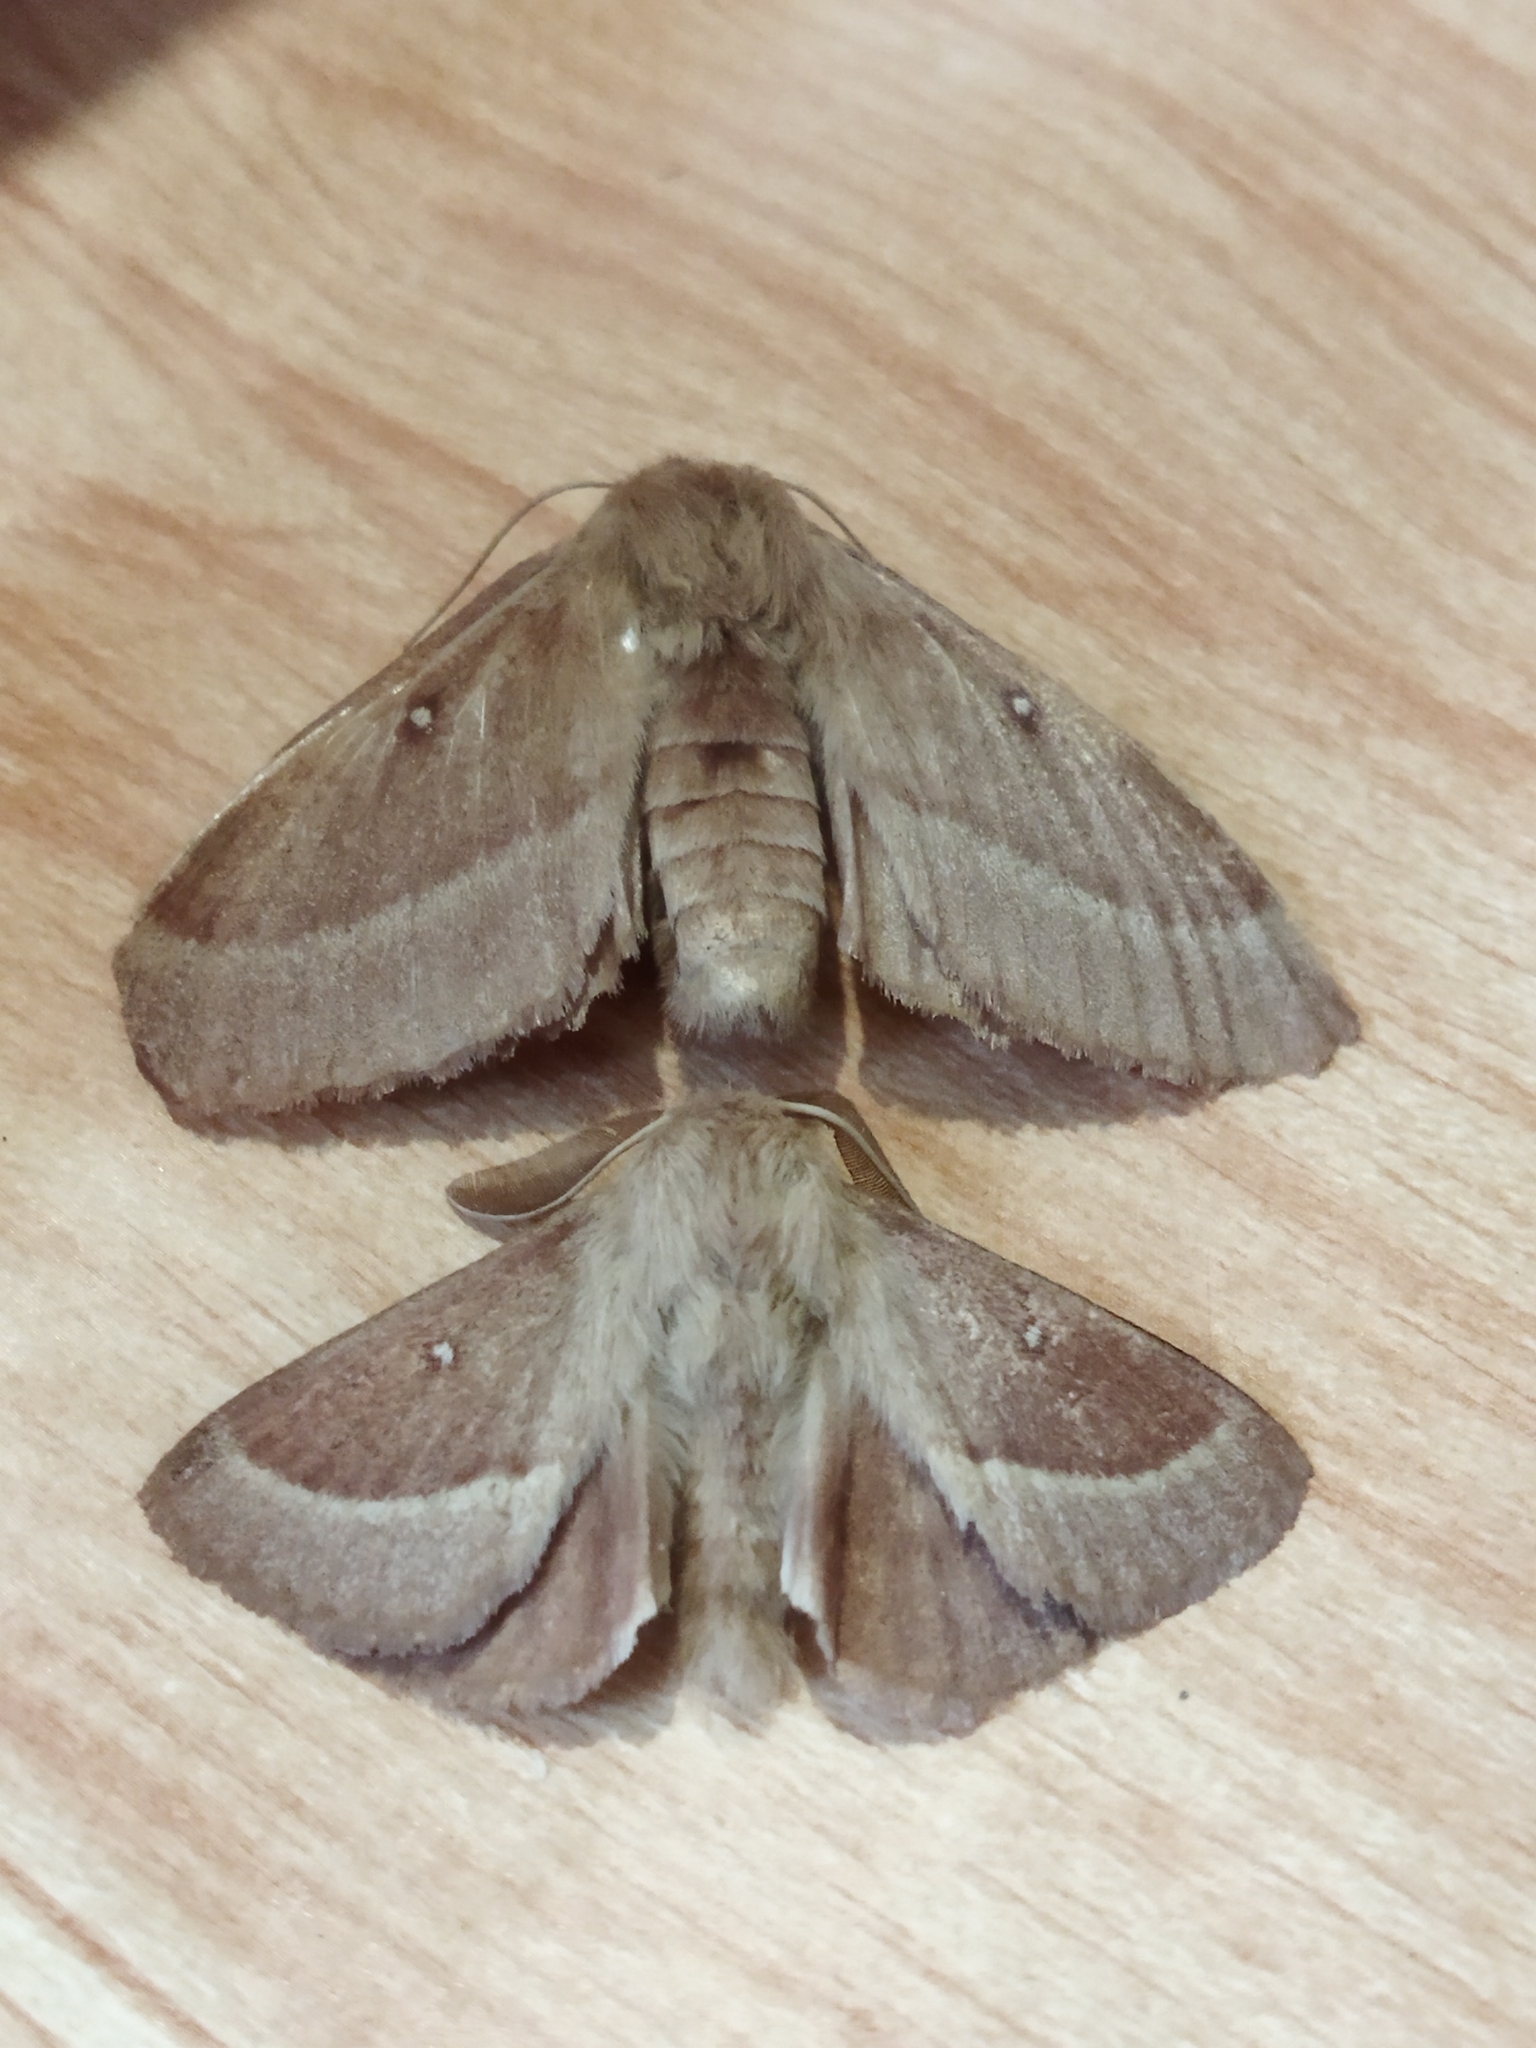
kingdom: Animalia
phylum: Arthropoda
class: Insecta
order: Lepidoptera
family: Lasiocampidae
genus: Lasiocampa
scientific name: Lasiocampa trifolii
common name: Grass eggar
